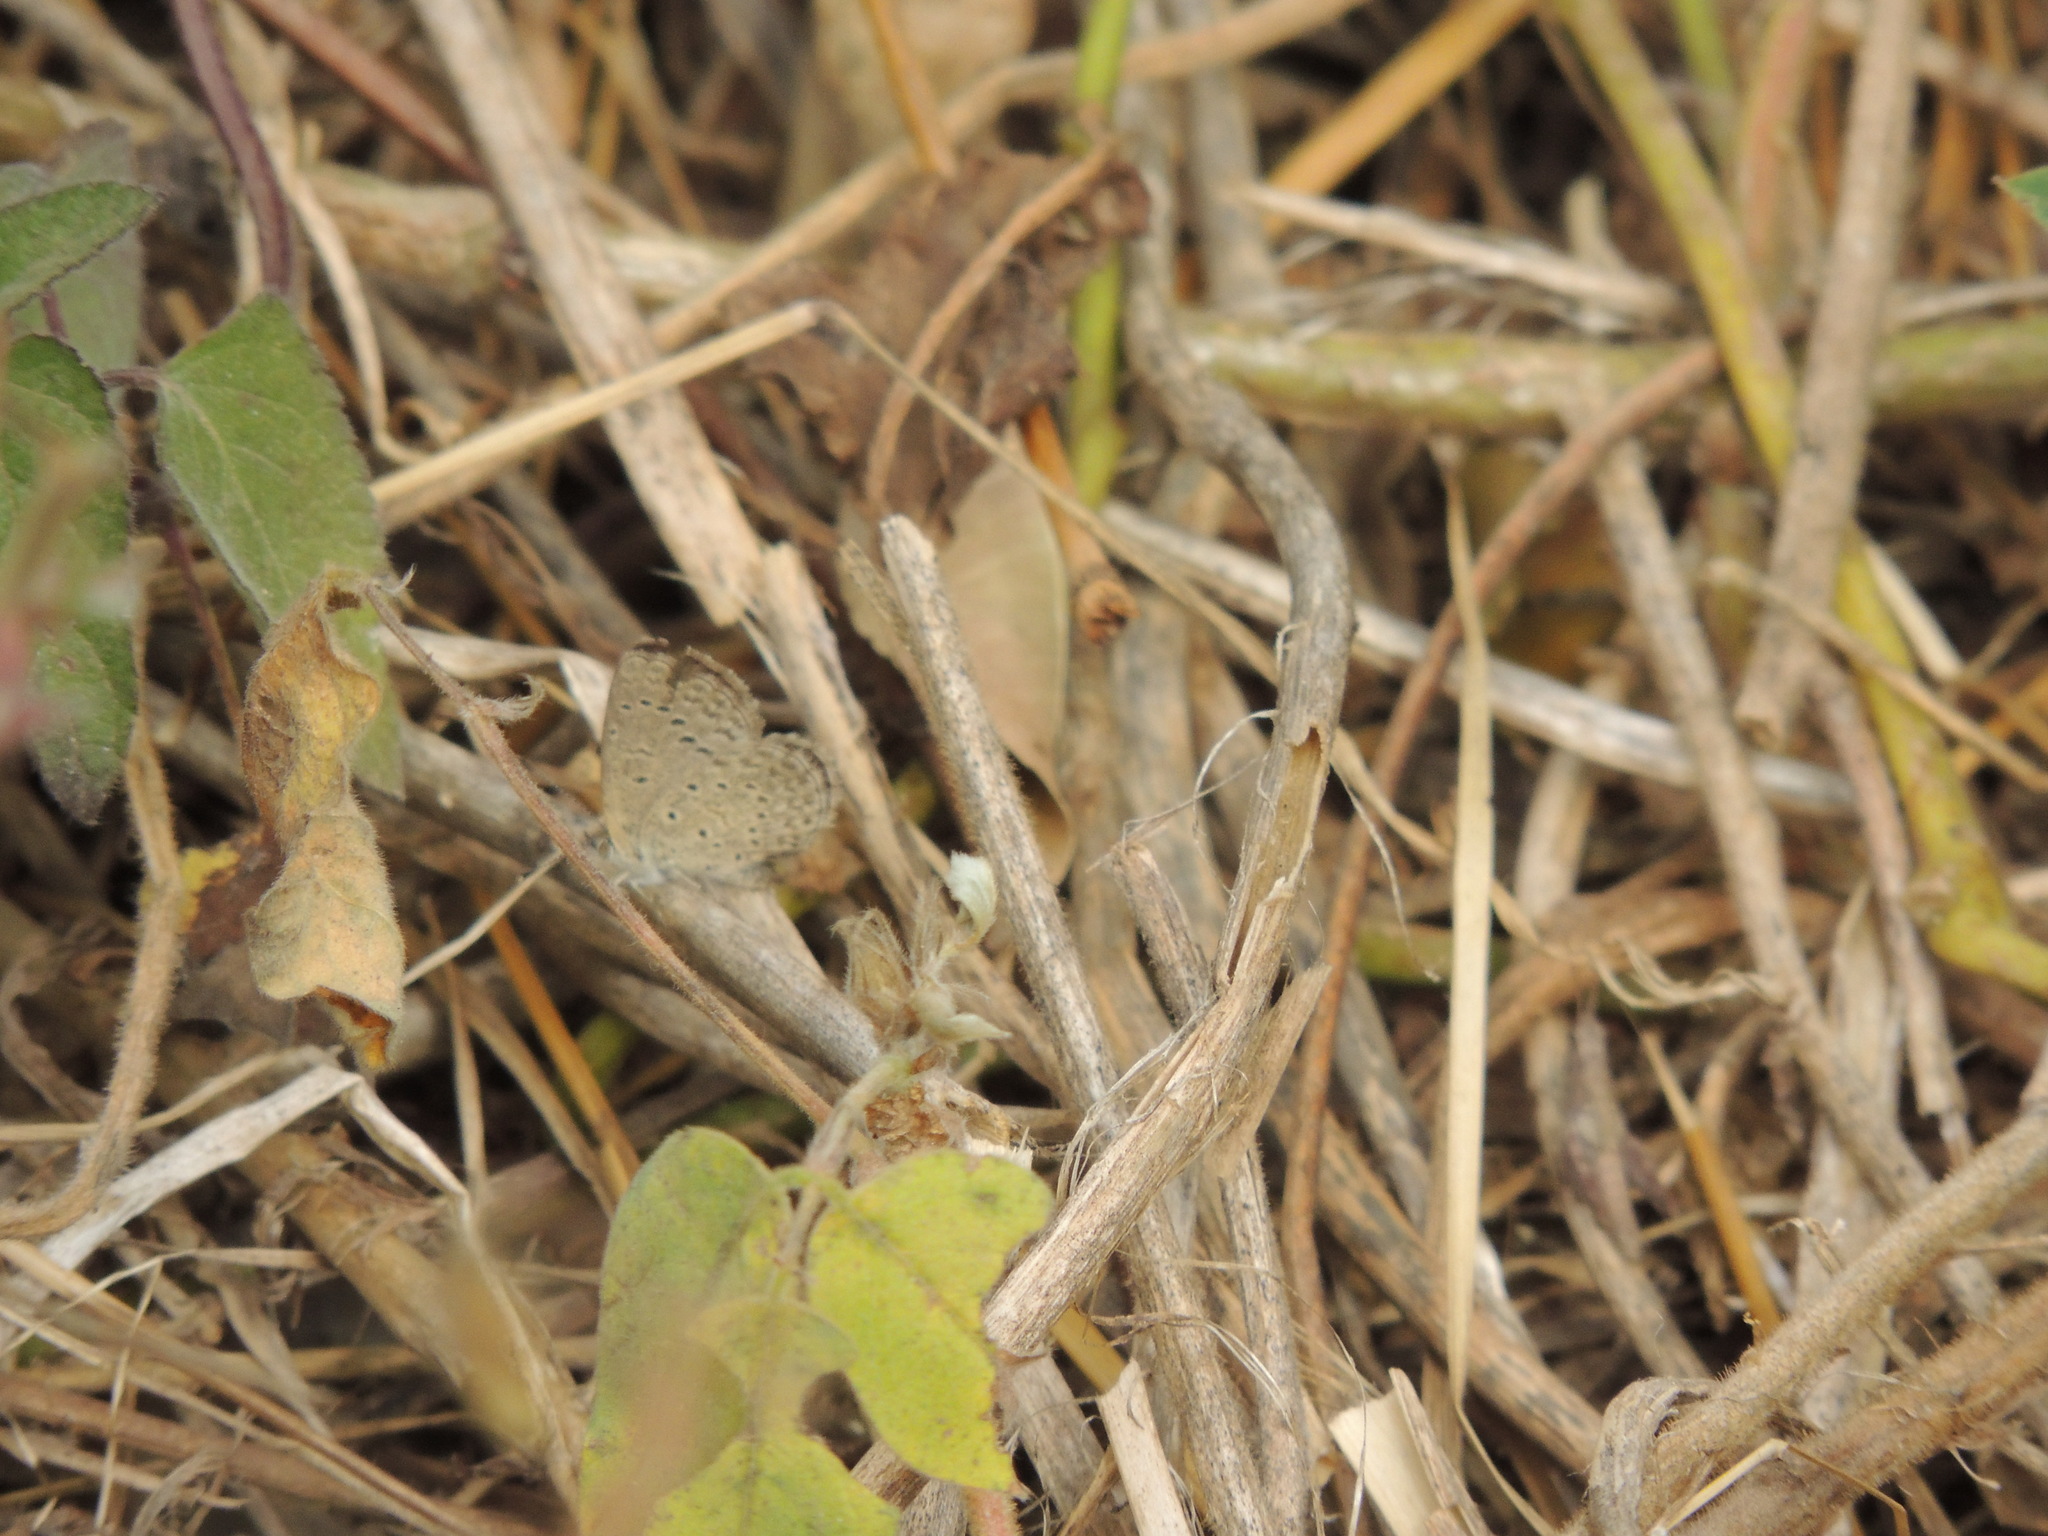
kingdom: Animalia
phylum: Arthropoda
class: Insecta
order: Lepidoptera
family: Lycaenidae
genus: Zizeeria
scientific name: Zizeeria knysna
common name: African grass blue
